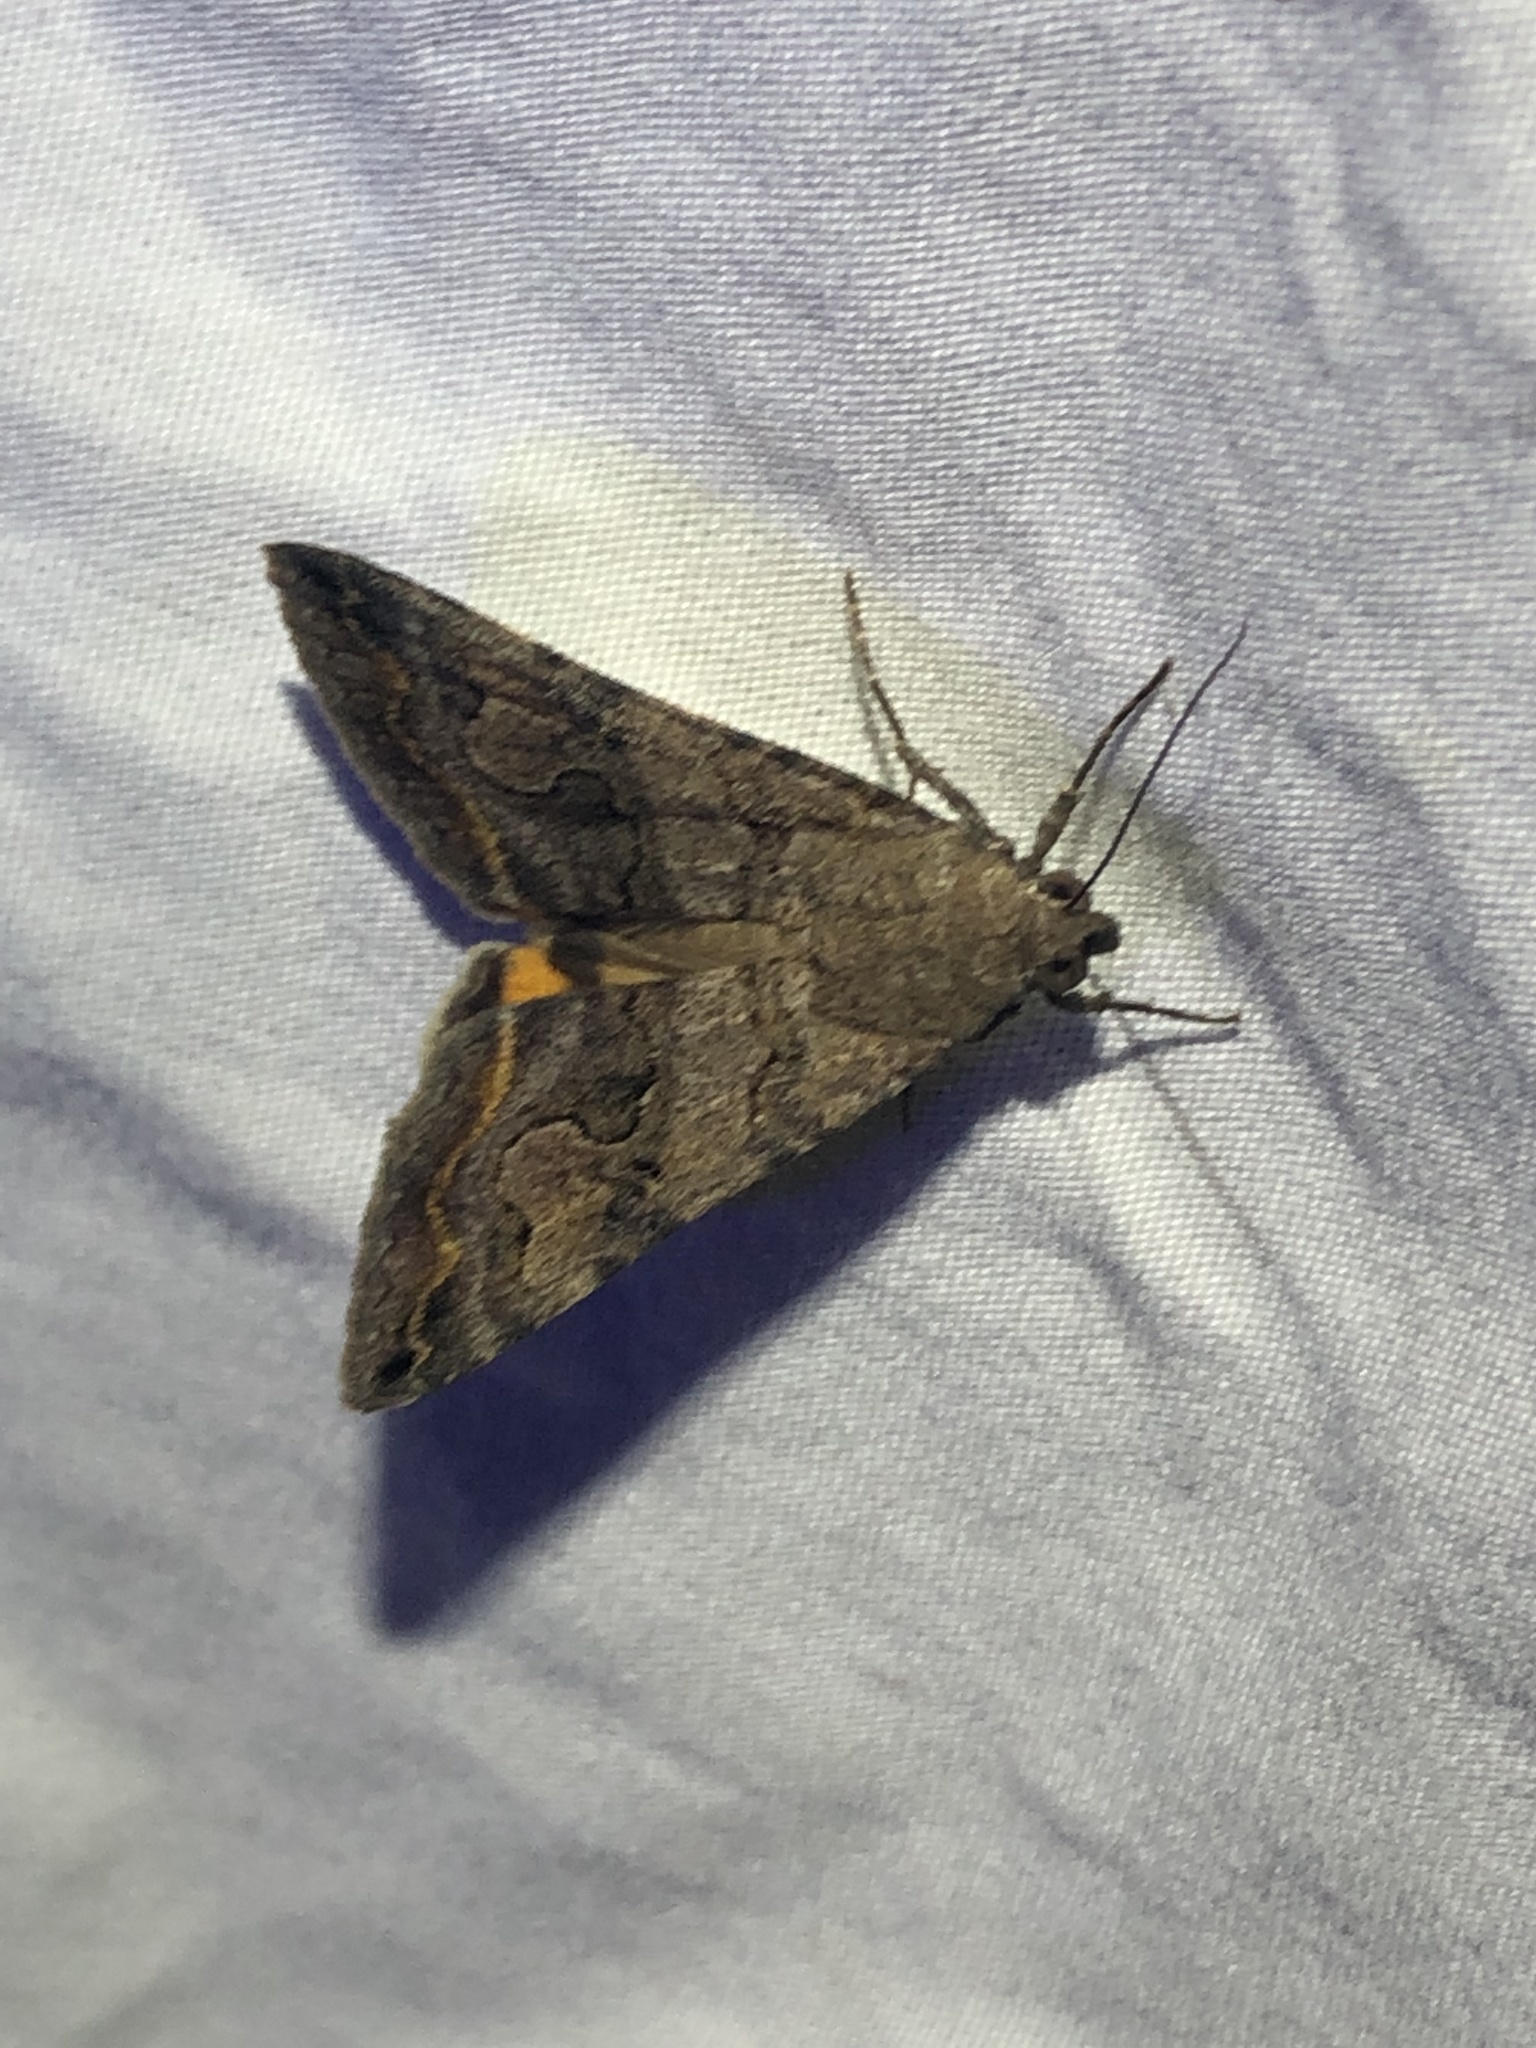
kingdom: Animalia
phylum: Arthropoda
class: Insecta
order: Lepidoptera
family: Erebidae
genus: Bulia
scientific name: Bulia deducta
